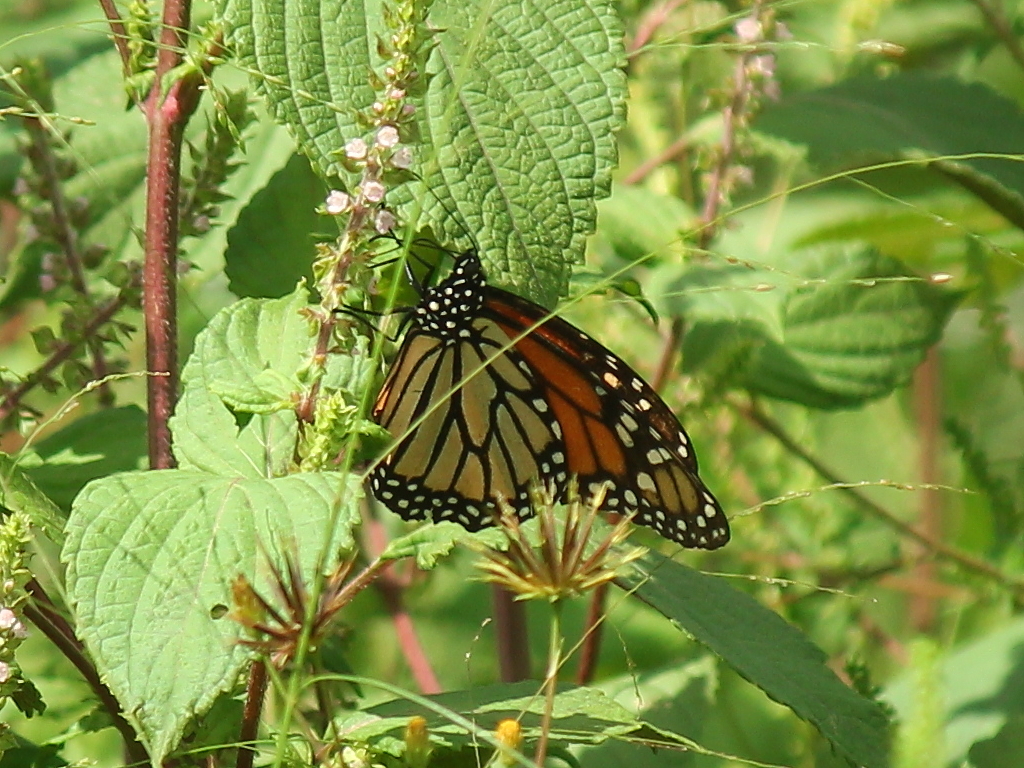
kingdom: Animalia
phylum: Arthropoda
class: Insecta
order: Lepidoptera
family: Nymphalidae
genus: Danaus
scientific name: Danaus plexippus
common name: Monarch
